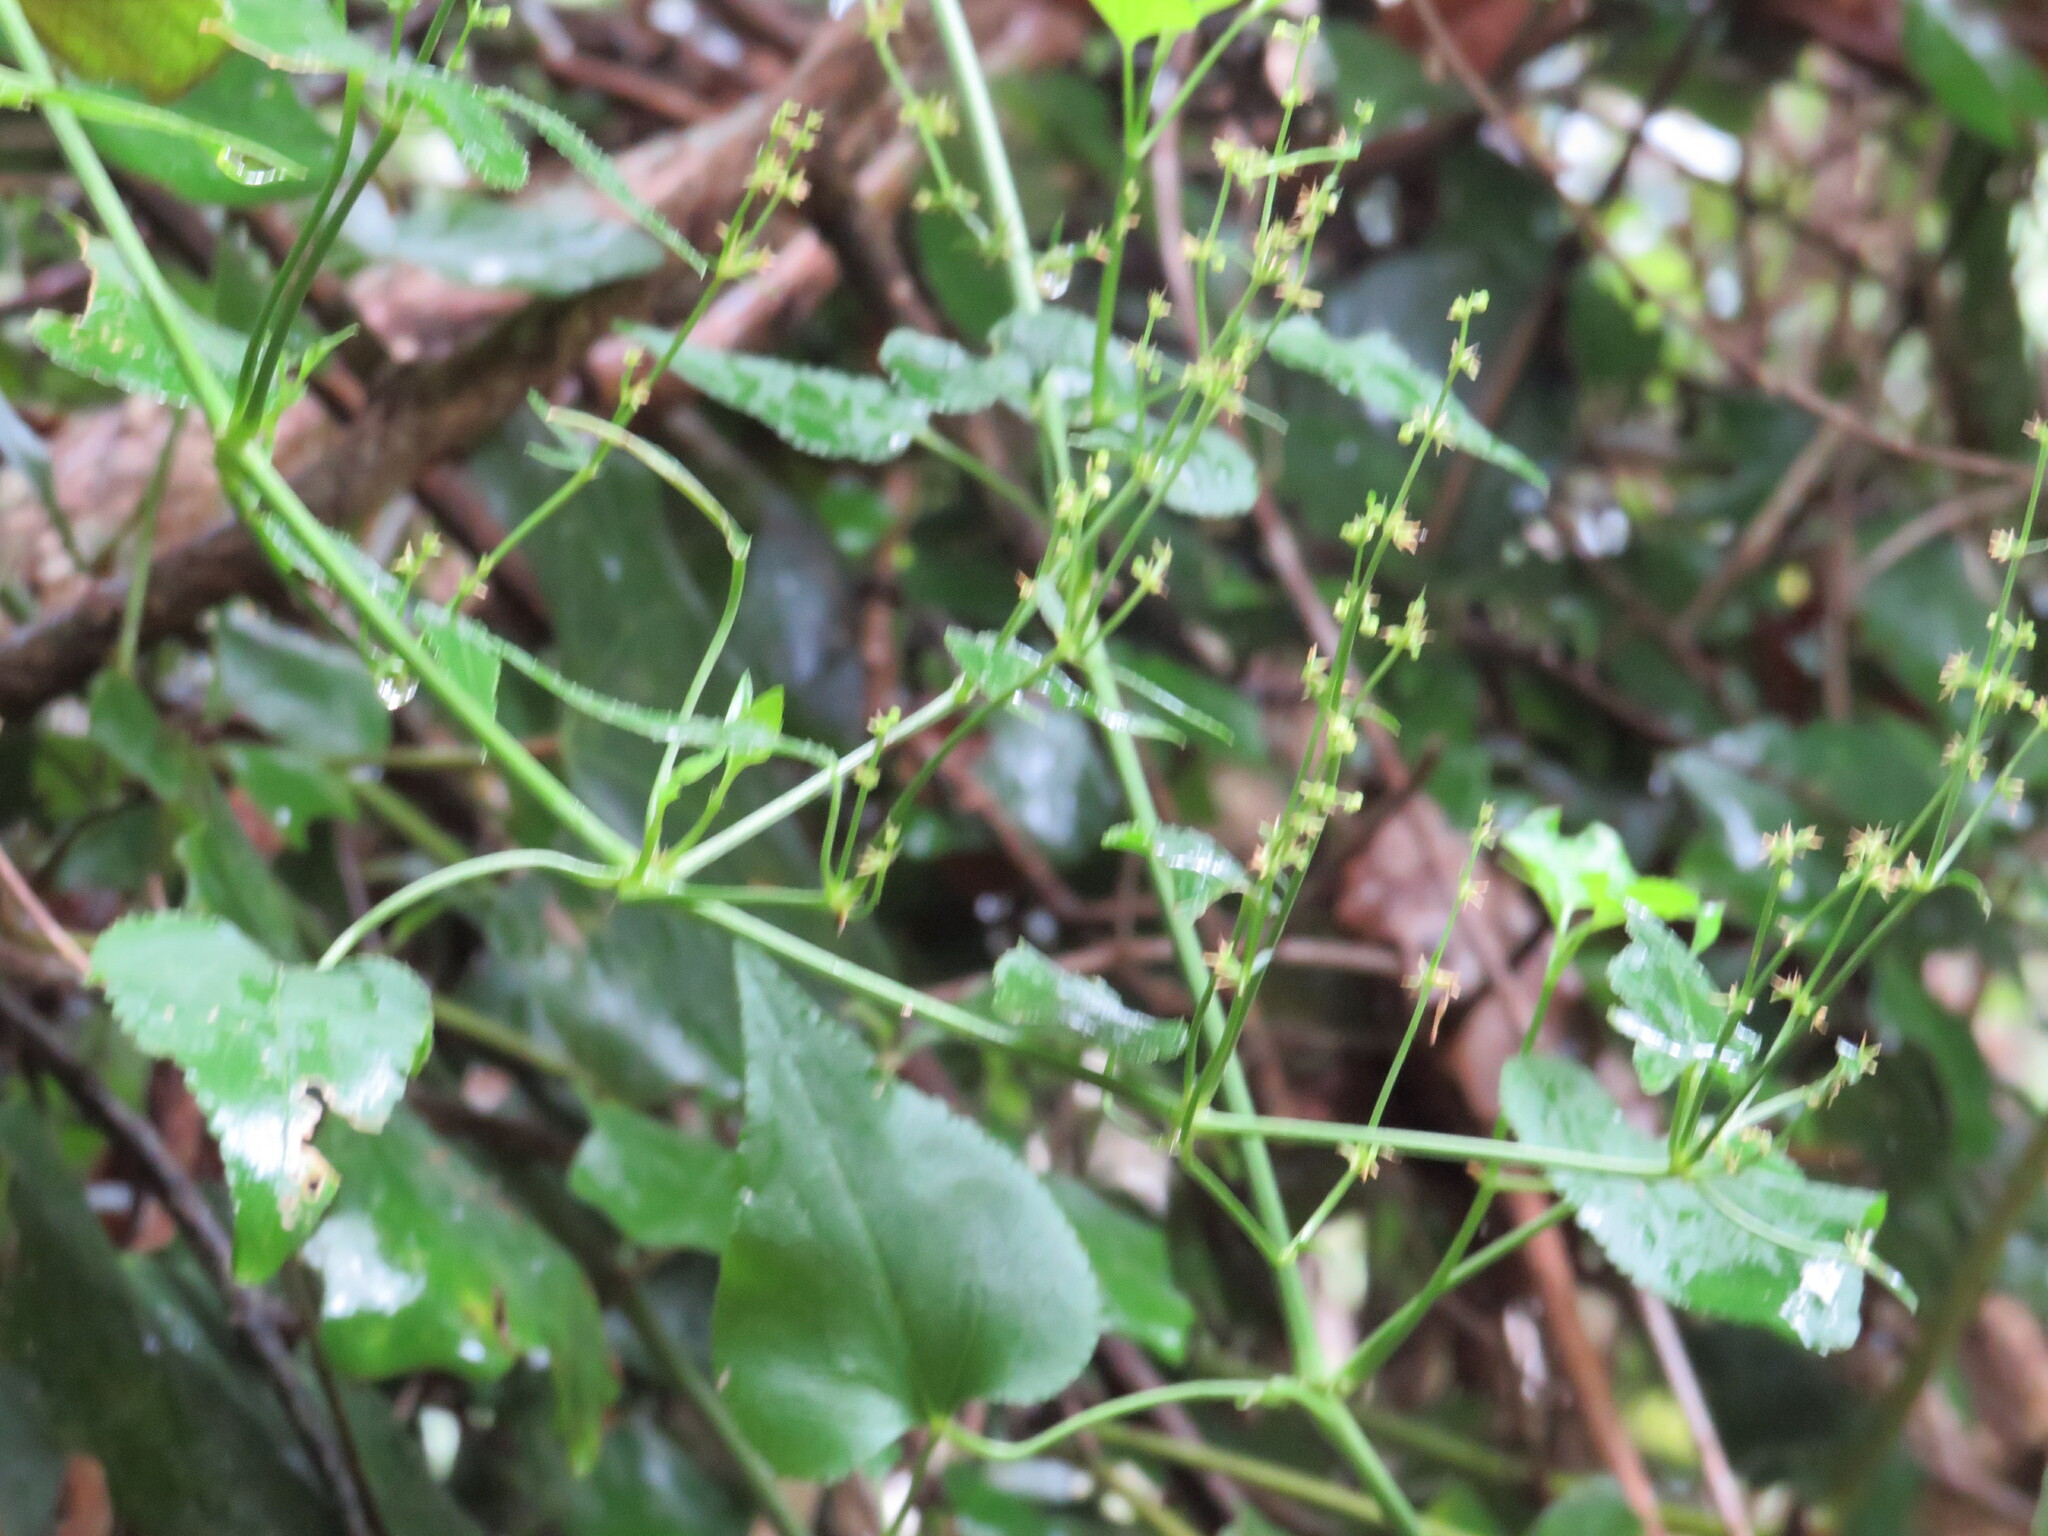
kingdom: Plantae
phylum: Tracheophyta
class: Magnoliopsida
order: Malpighiales
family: Euphorbiaceae
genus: Adenocline
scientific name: Adenocline acuta
